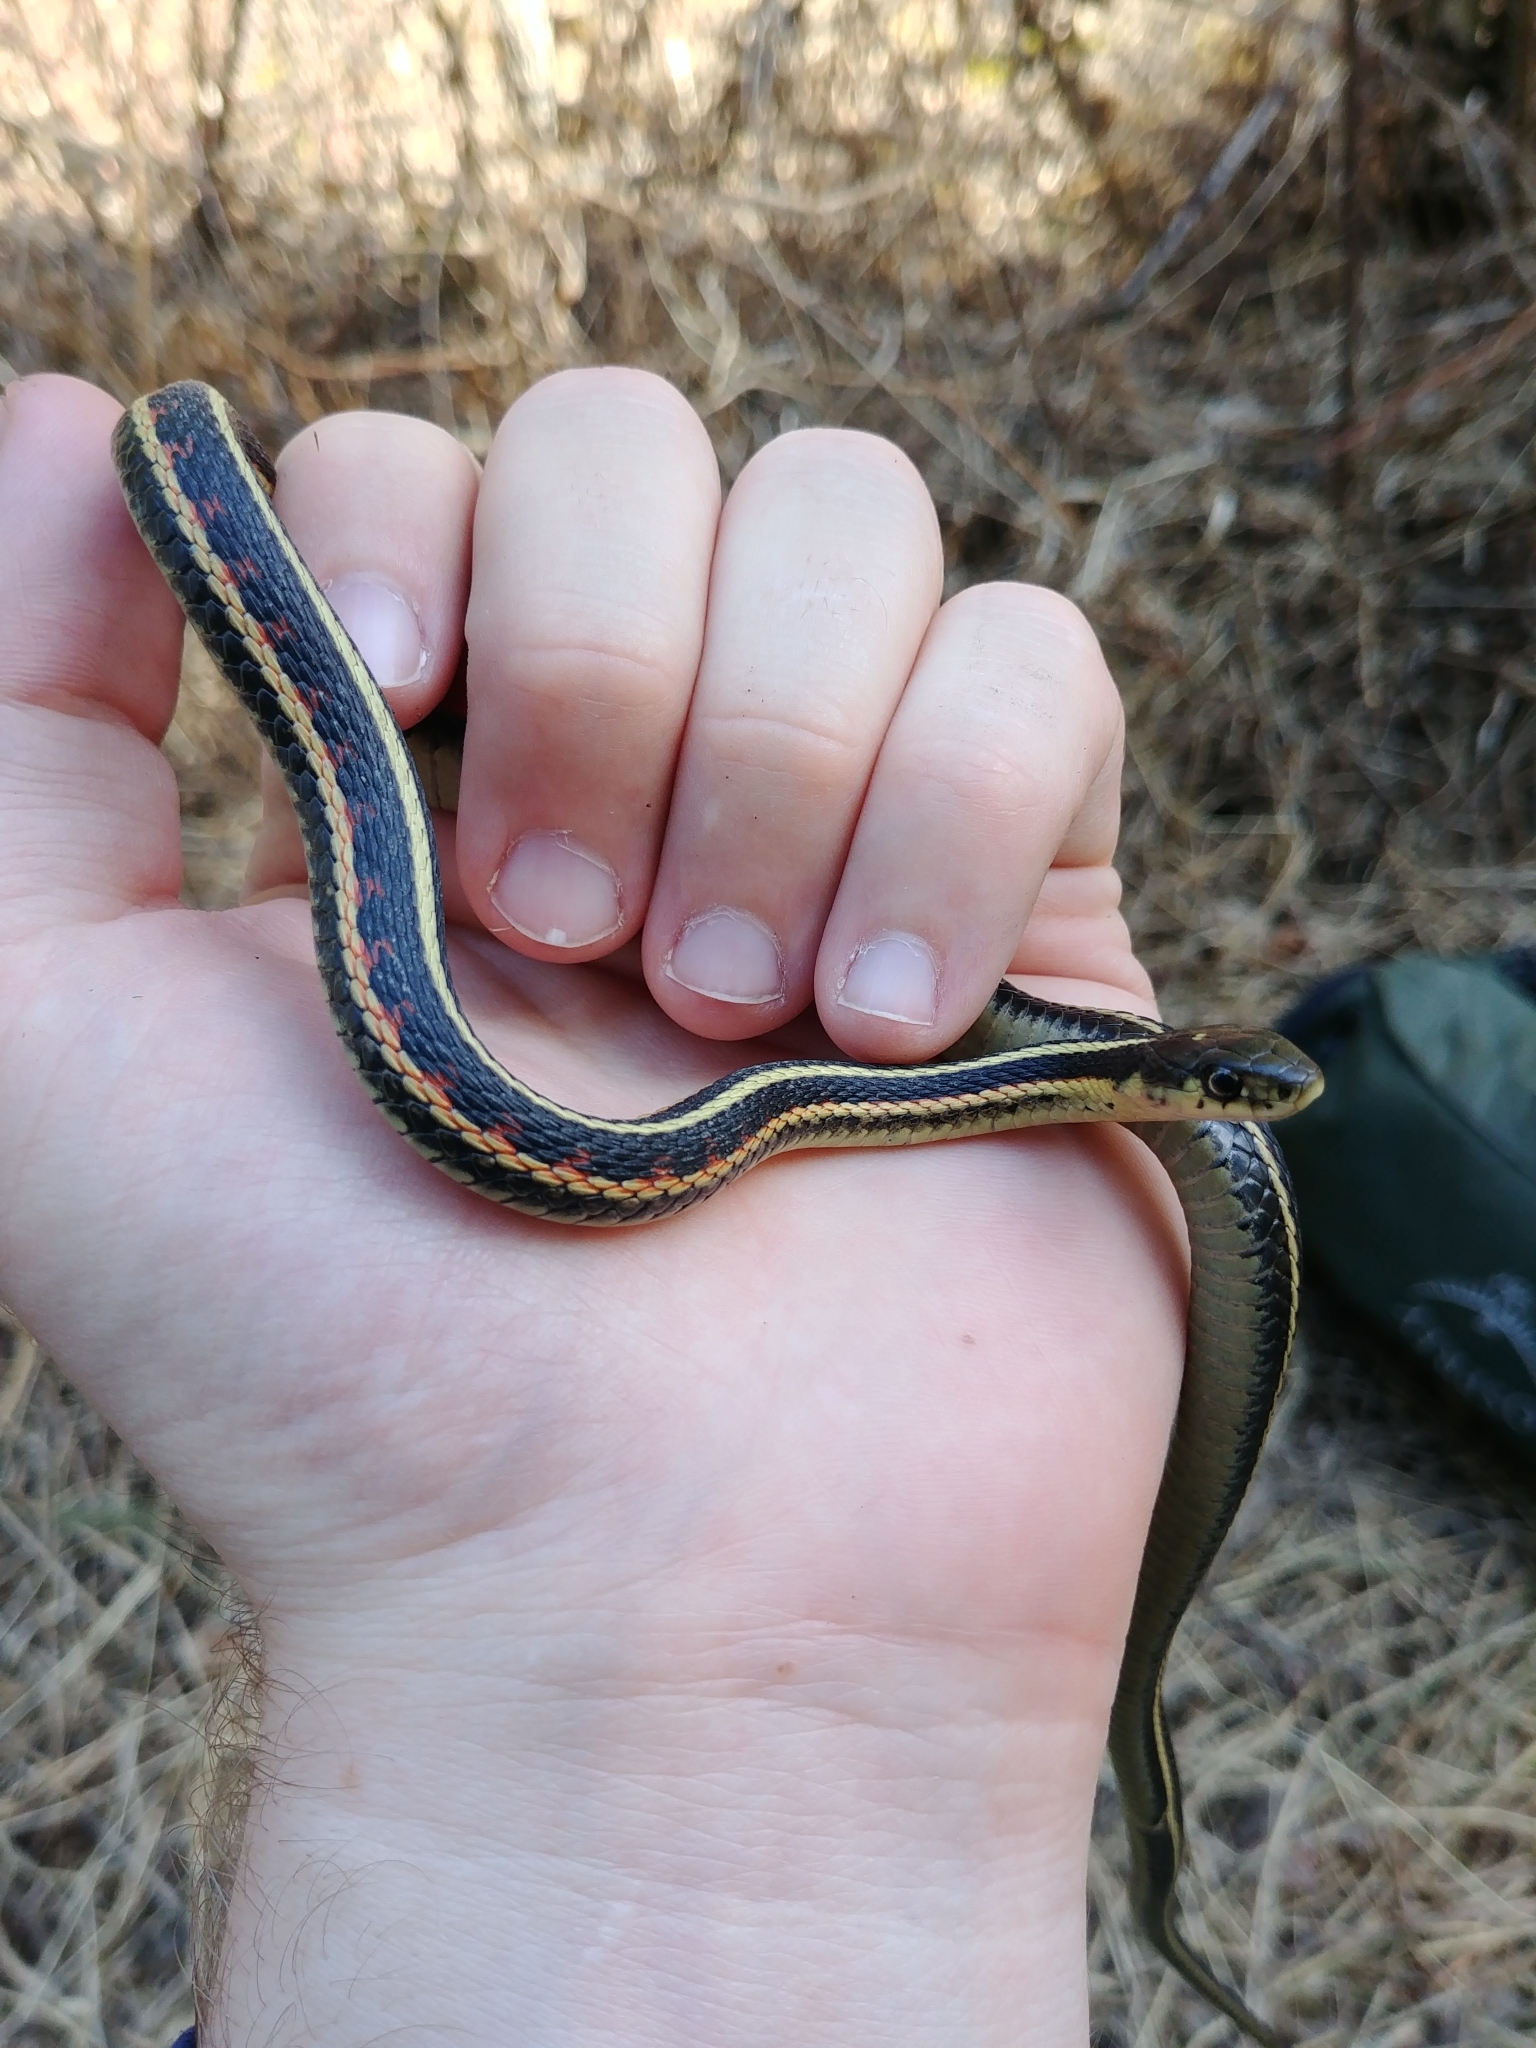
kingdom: Animalia
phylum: Chordata
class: Squamata
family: Colubridae
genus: Thamnophis
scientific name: Thamnophis sirtalis
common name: Common garter snake
